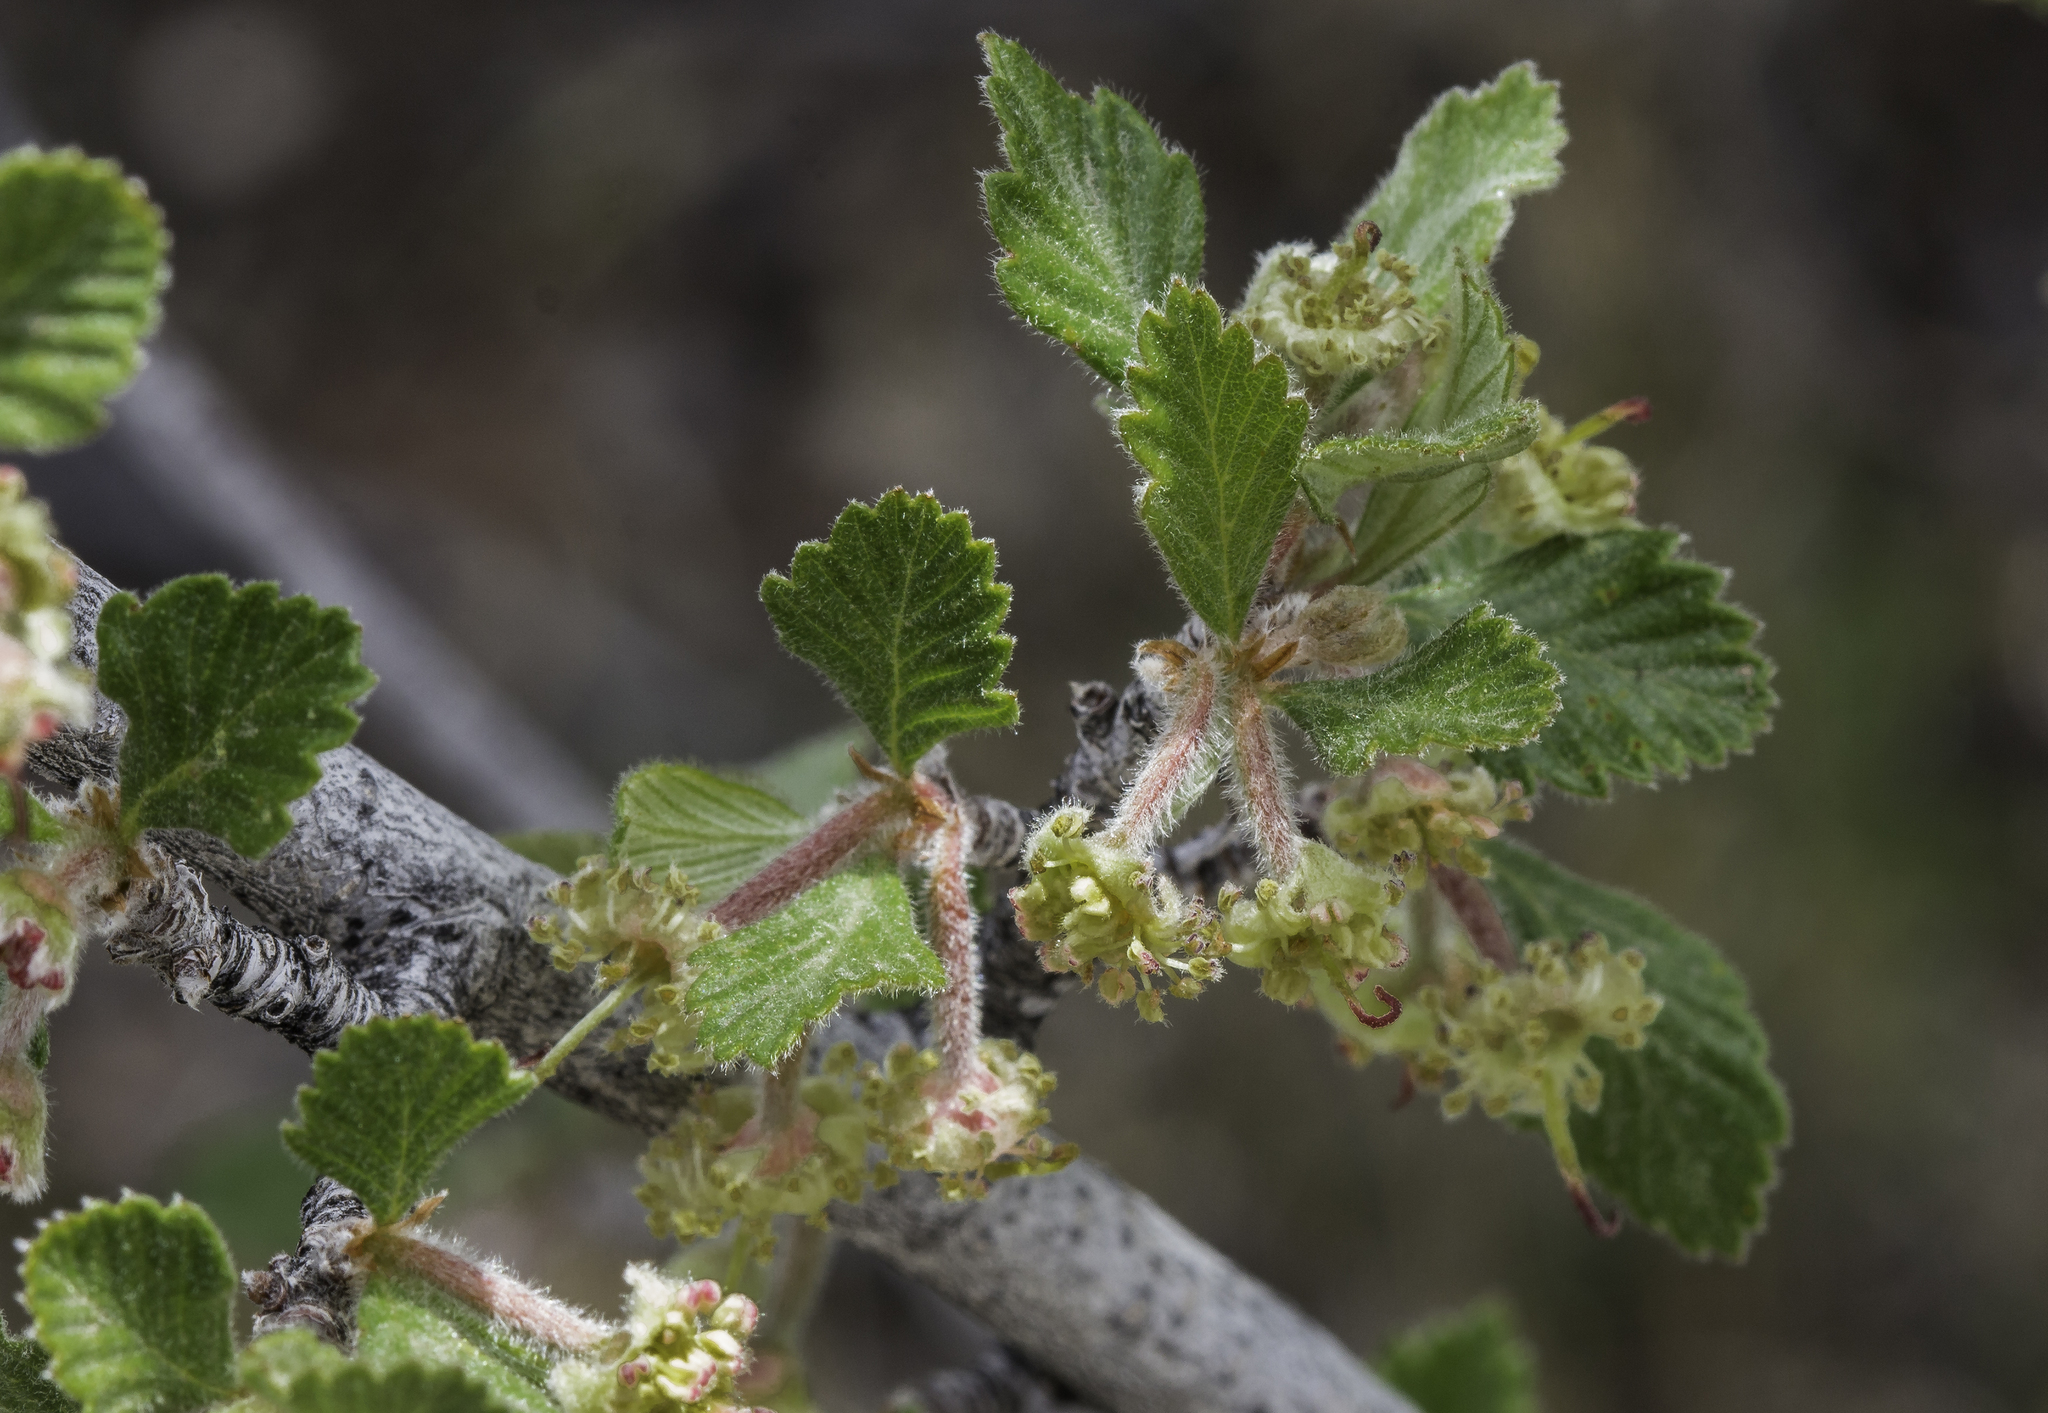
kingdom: Plantae
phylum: Tracheophyta
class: Magnoliopsida
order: Rosales
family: Rosaceae
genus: Cercocarpus
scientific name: Cercocarpus montanus
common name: Alder-leaf cercocarpus
